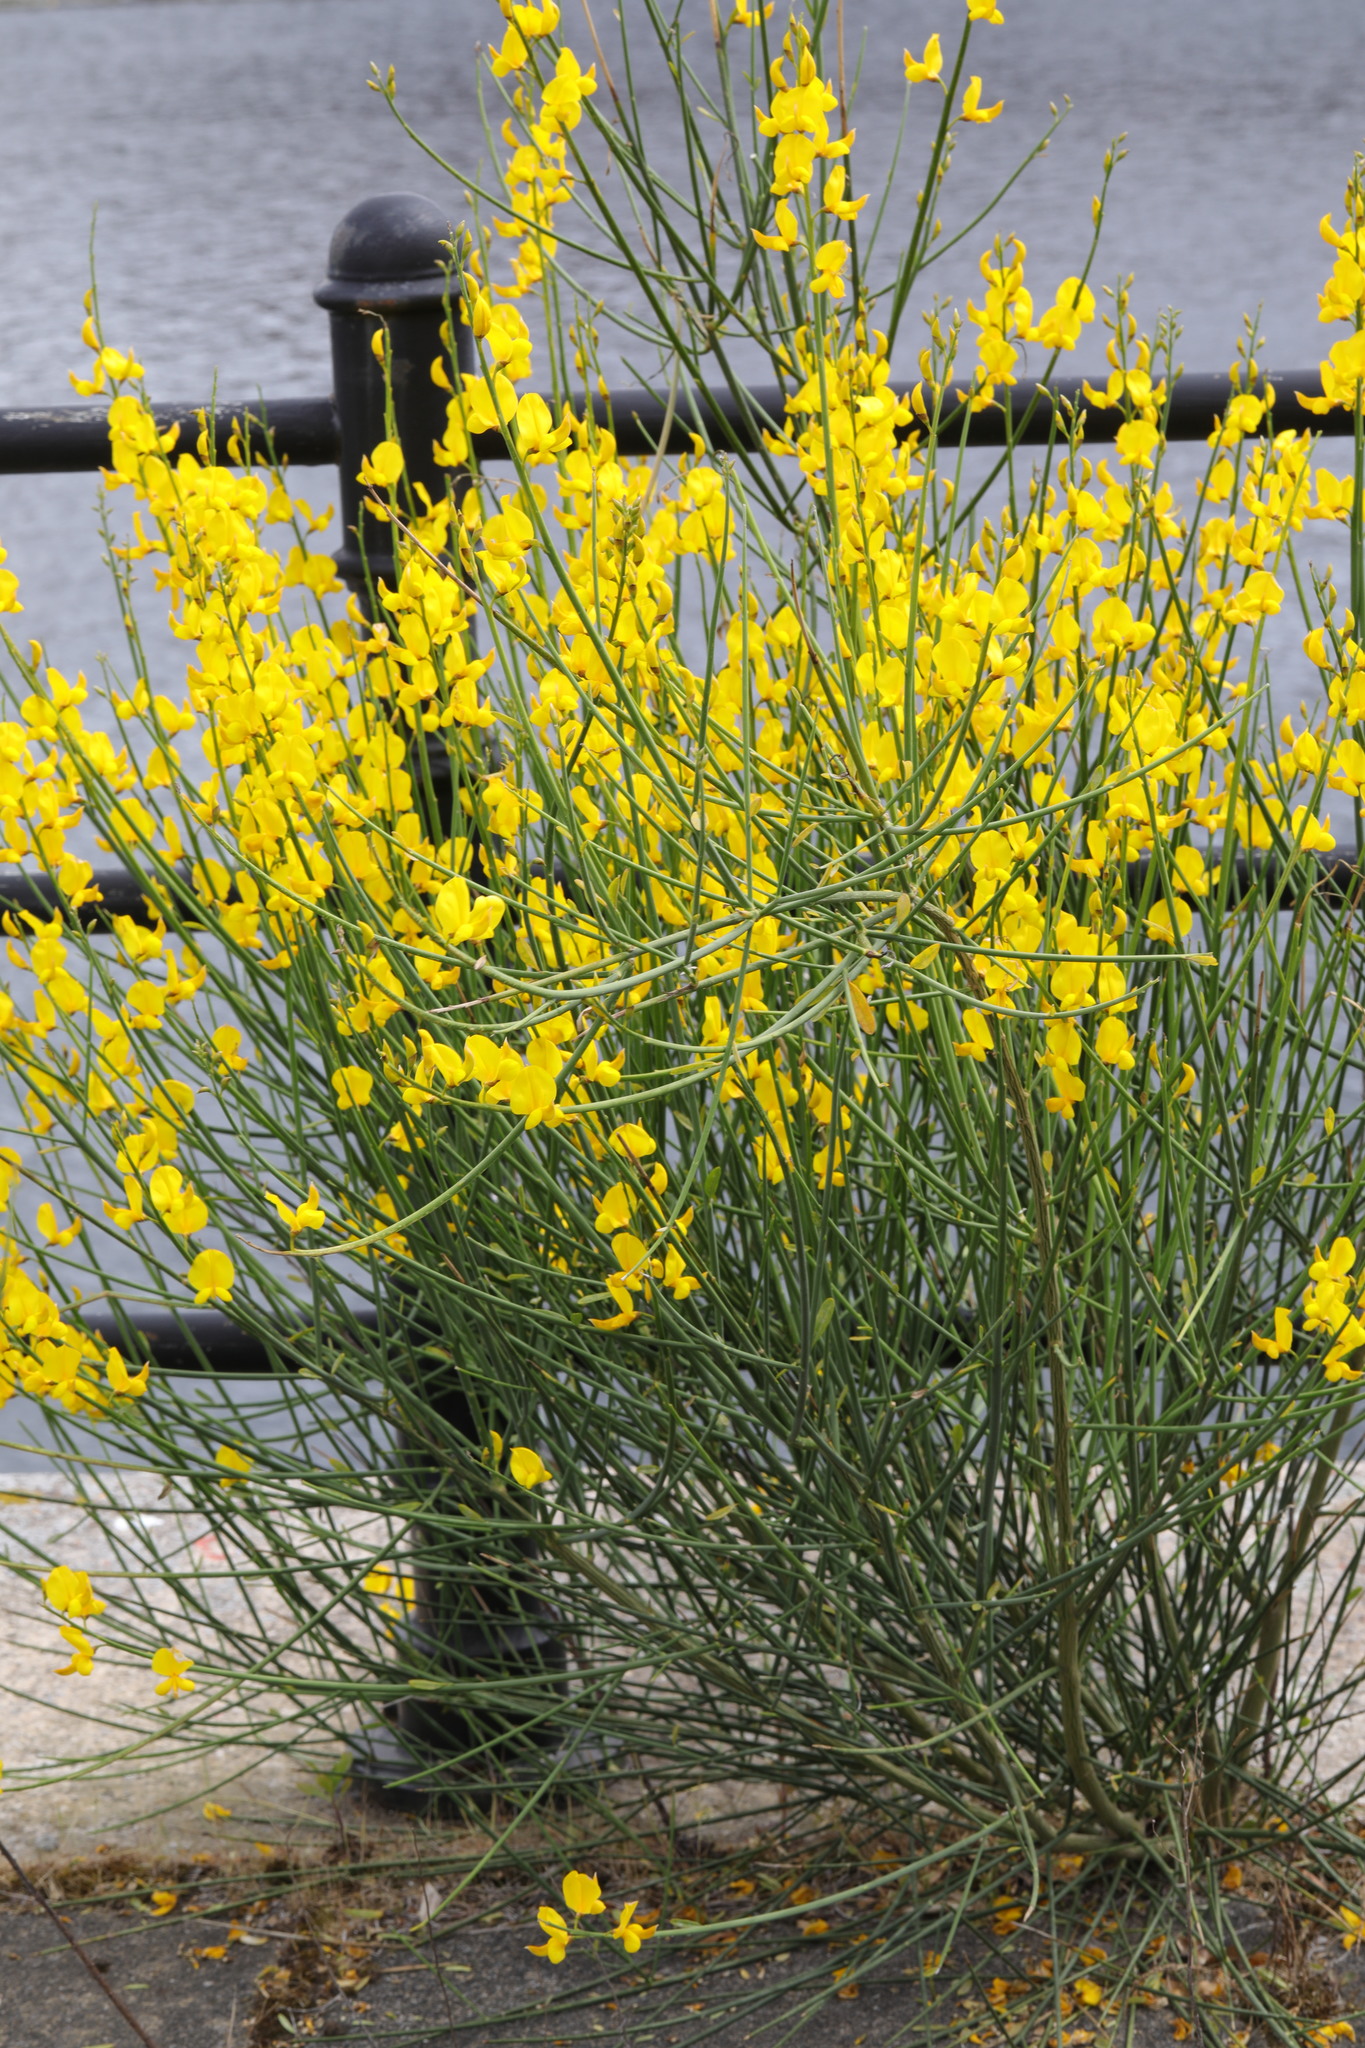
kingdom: Plantae
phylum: Tracheophyta
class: Magnoliopsida
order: Fabales
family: Fabaceae
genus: Spartium
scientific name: Spartium junceum
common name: Spanish broom
